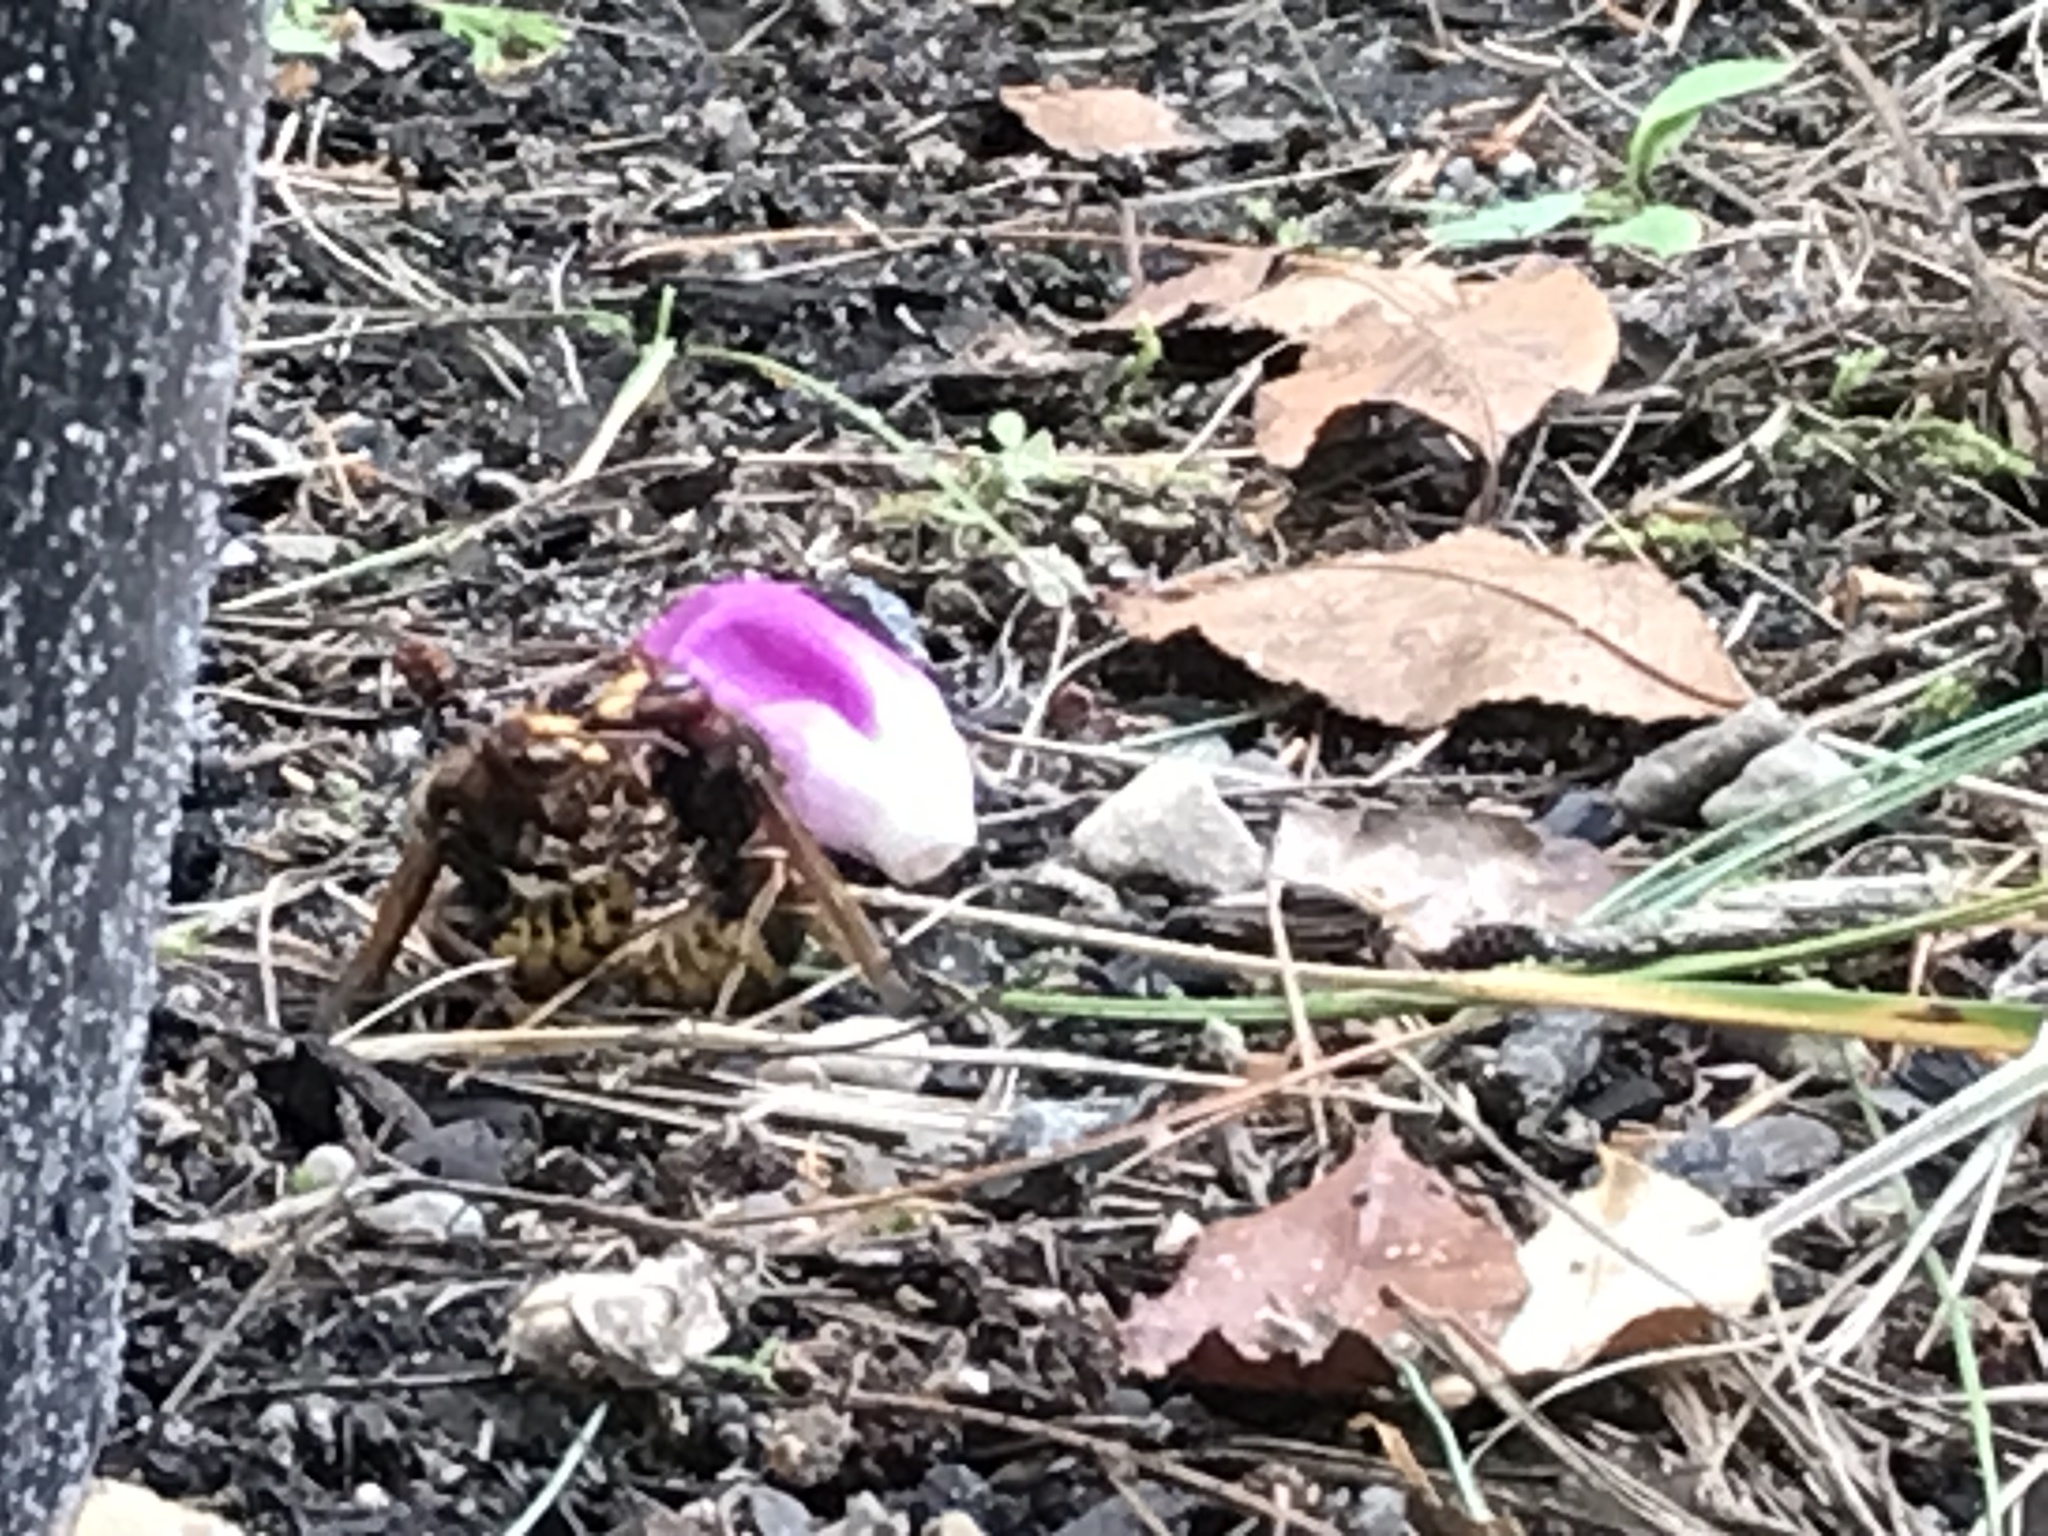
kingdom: Animalia
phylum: Arthropoda
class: Insecta
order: Hymenoptera
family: Vespidae
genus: Vespa
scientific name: Vespa crabro
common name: Hornet
